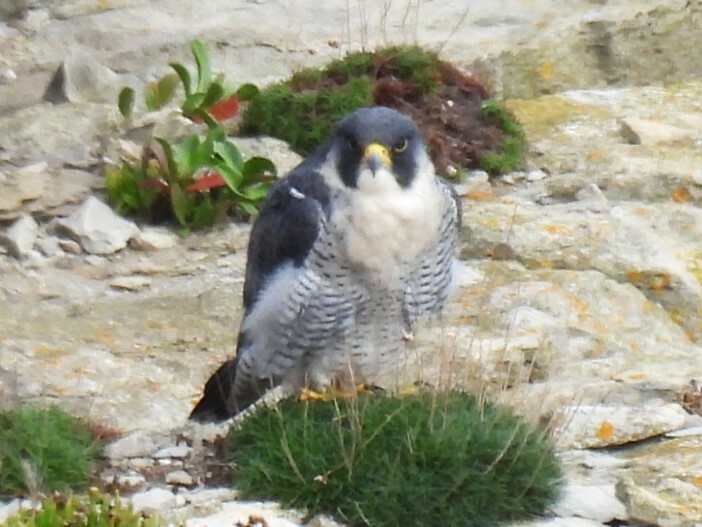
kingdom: Animalia
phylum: Chordata
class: Aves
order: Falconiformes
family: Falconidae
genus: Falco
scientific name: Falco peregrinus
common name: Peregrine falcon
